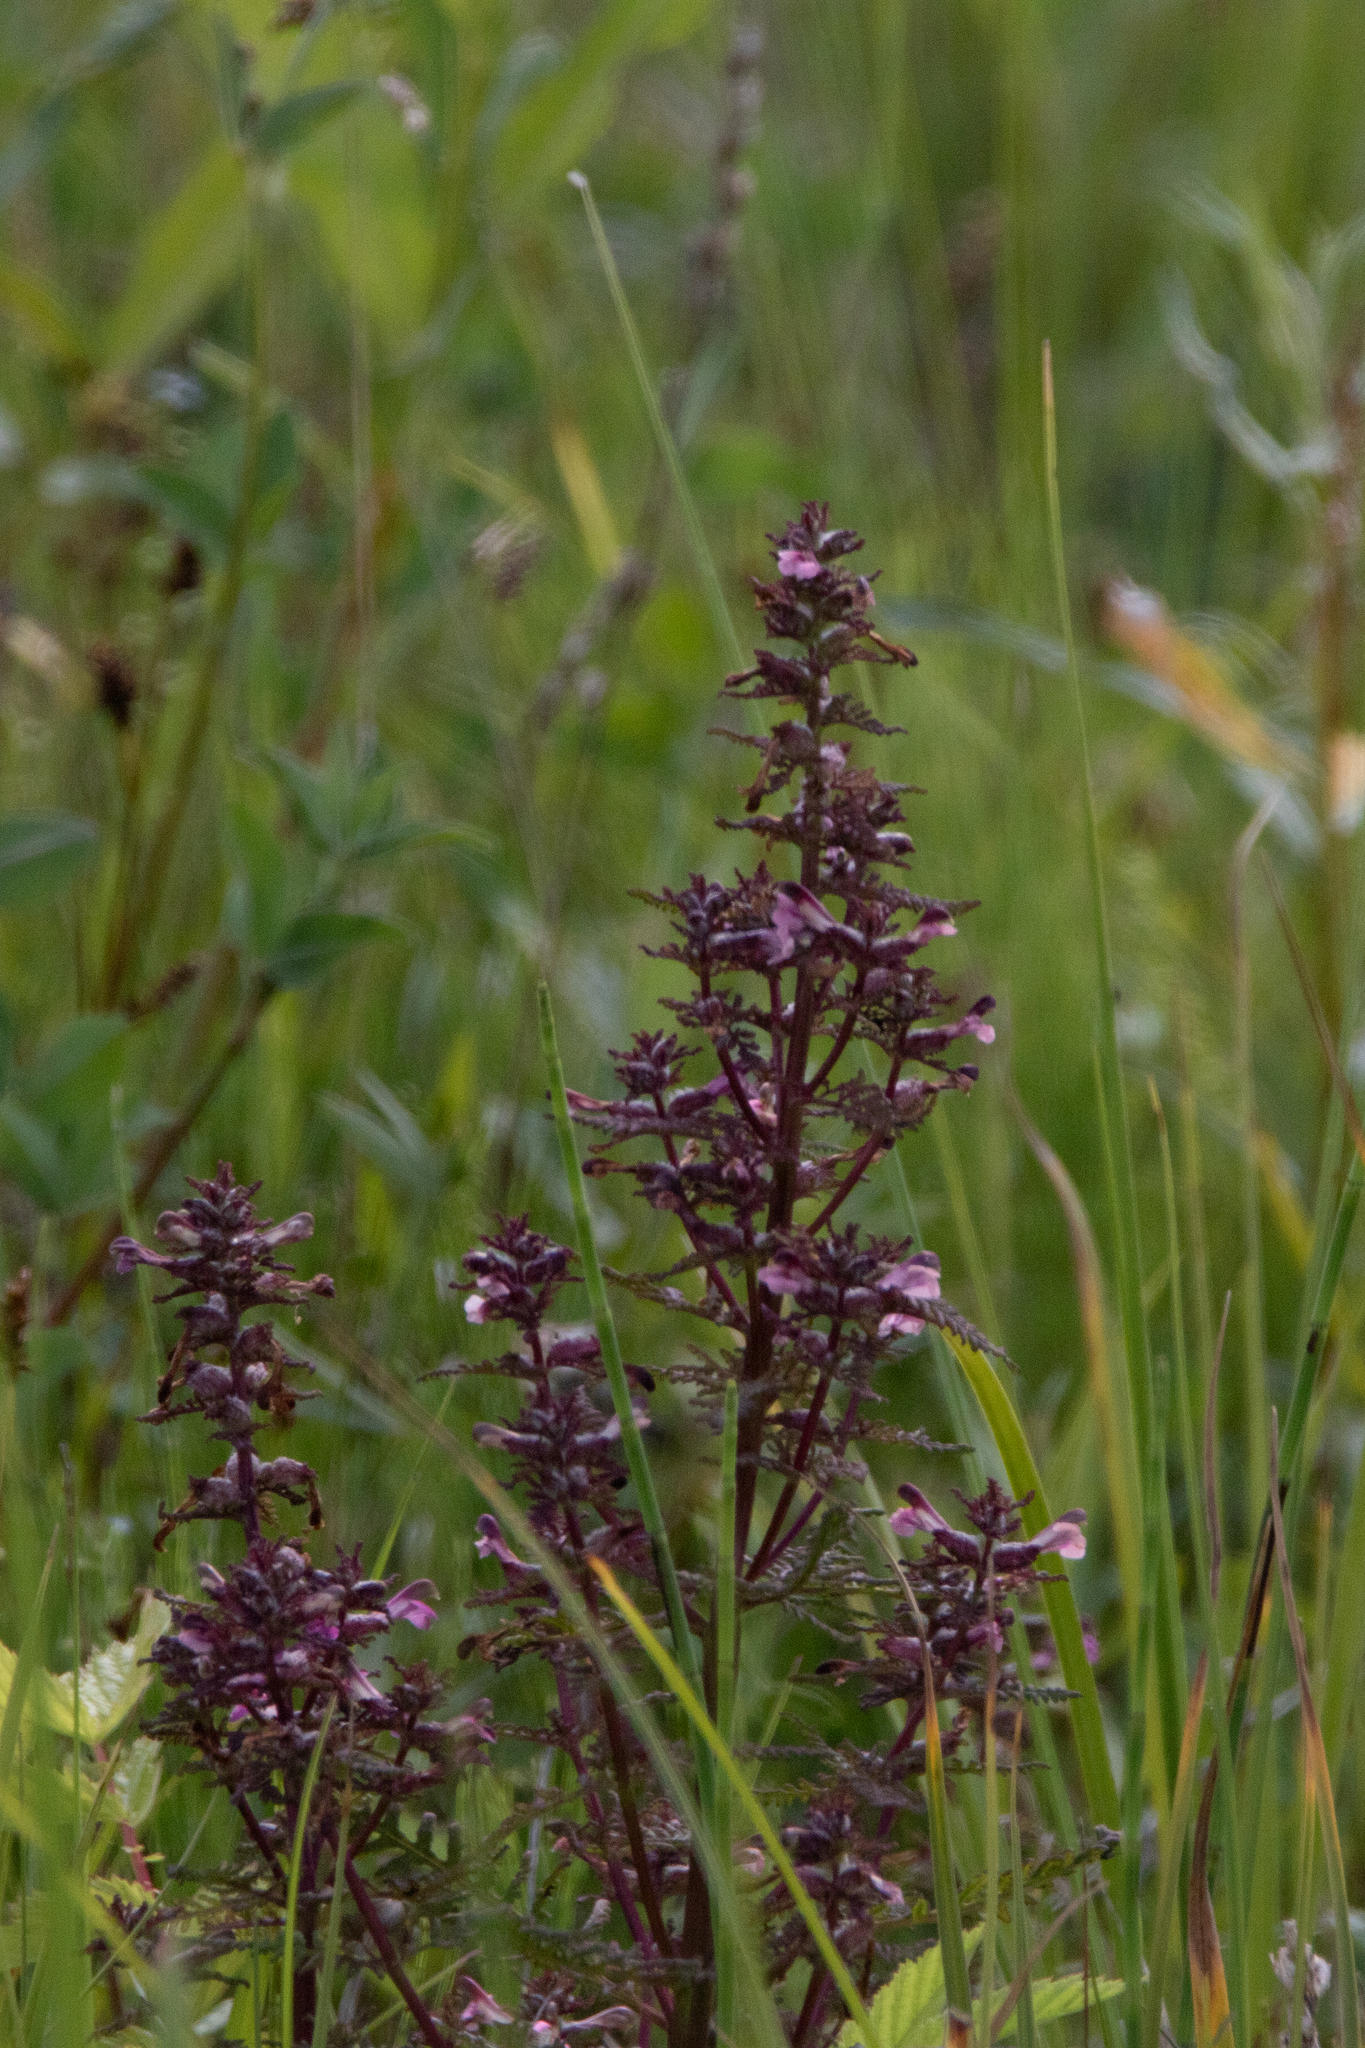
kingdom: Plantae
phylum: Tracheophyta
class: Magnoliopsida
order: Lamiales
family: Orobanchaceae
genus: Pedicularis
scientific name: Pedicularis karoi
